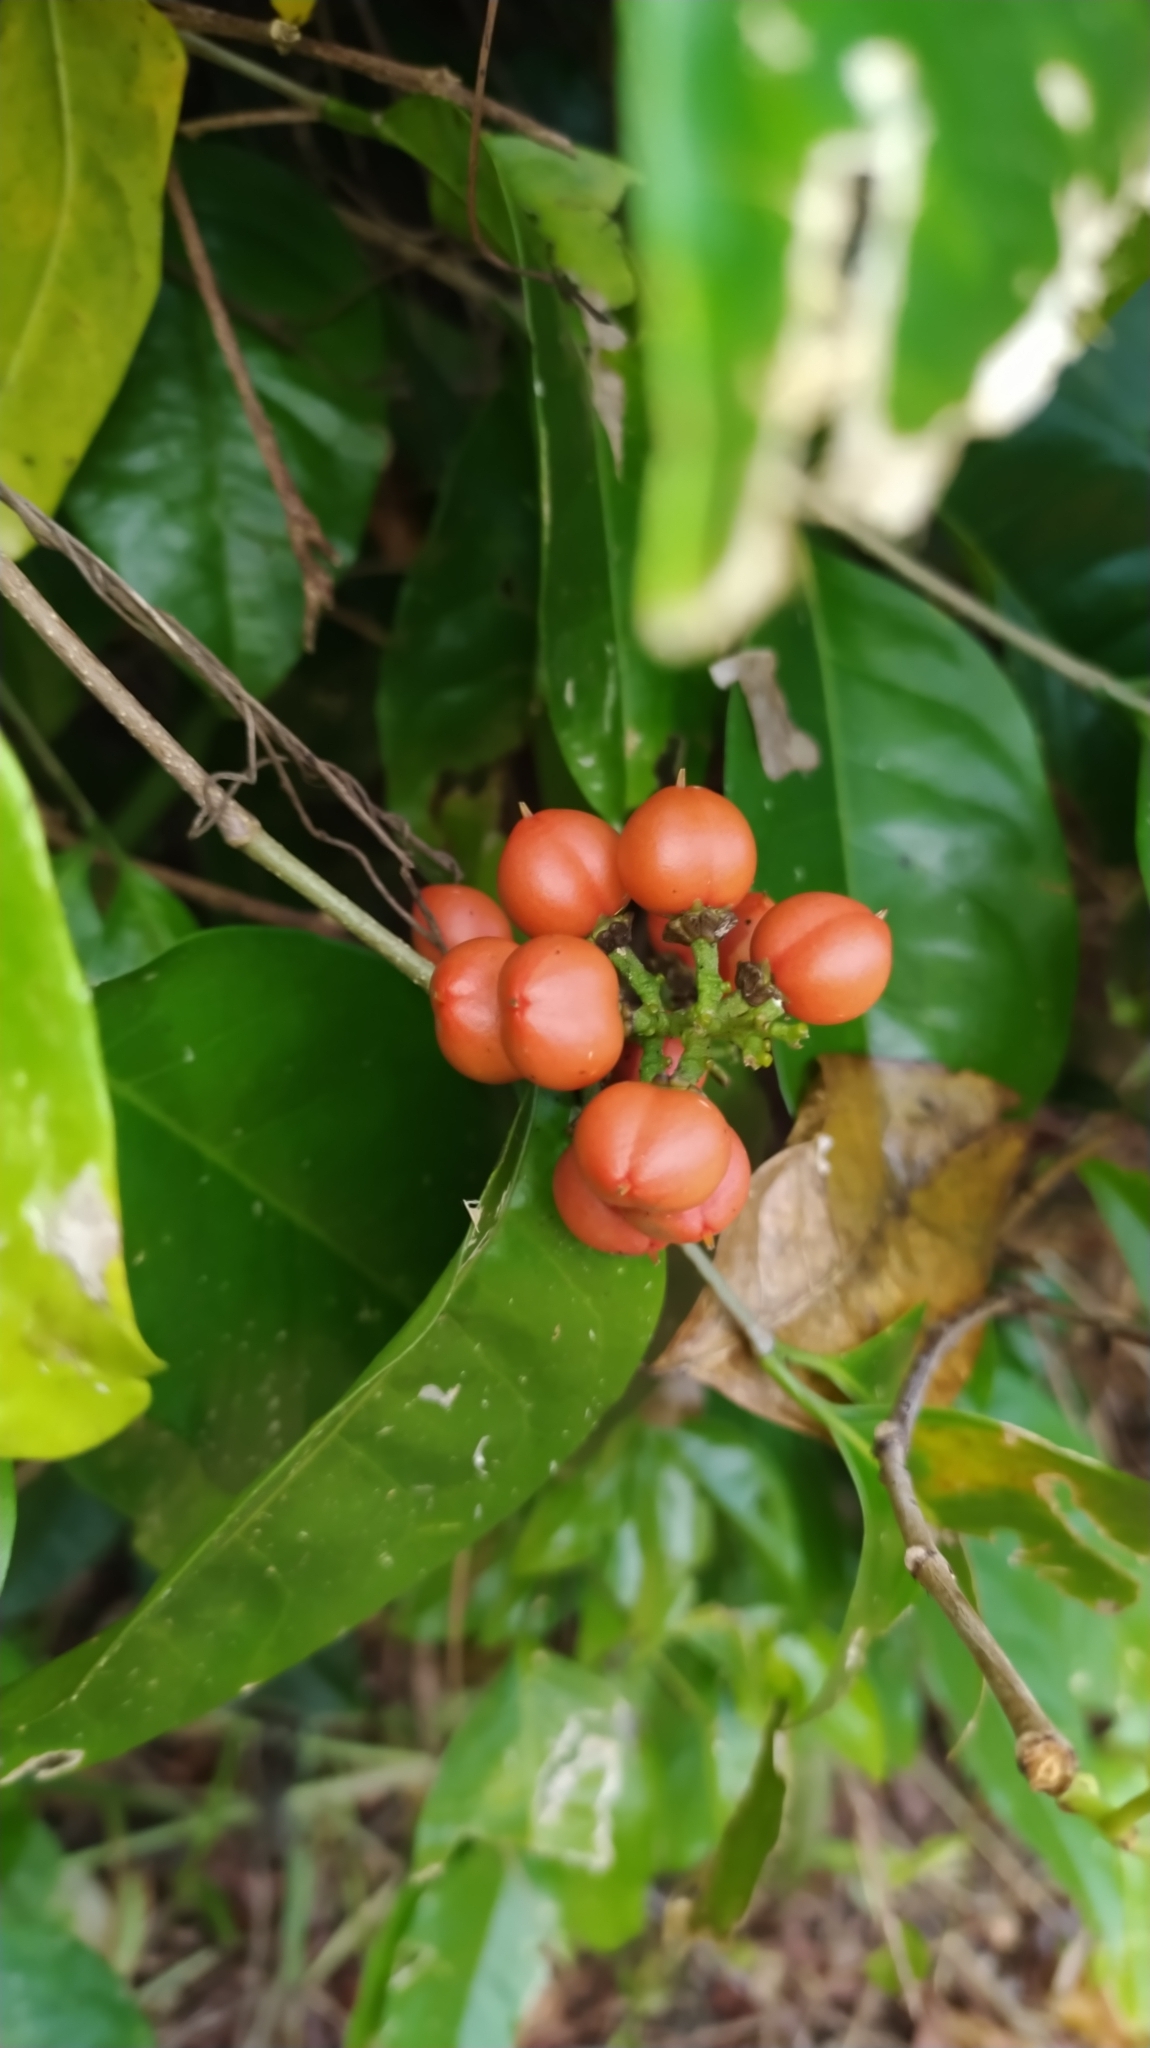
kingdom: Plantae
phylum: Tracheophyta
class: Magnoliopsida
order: Malpighiales
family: Malpighiaceae
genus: Bunchosia
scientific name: Bunchosia apiculata
